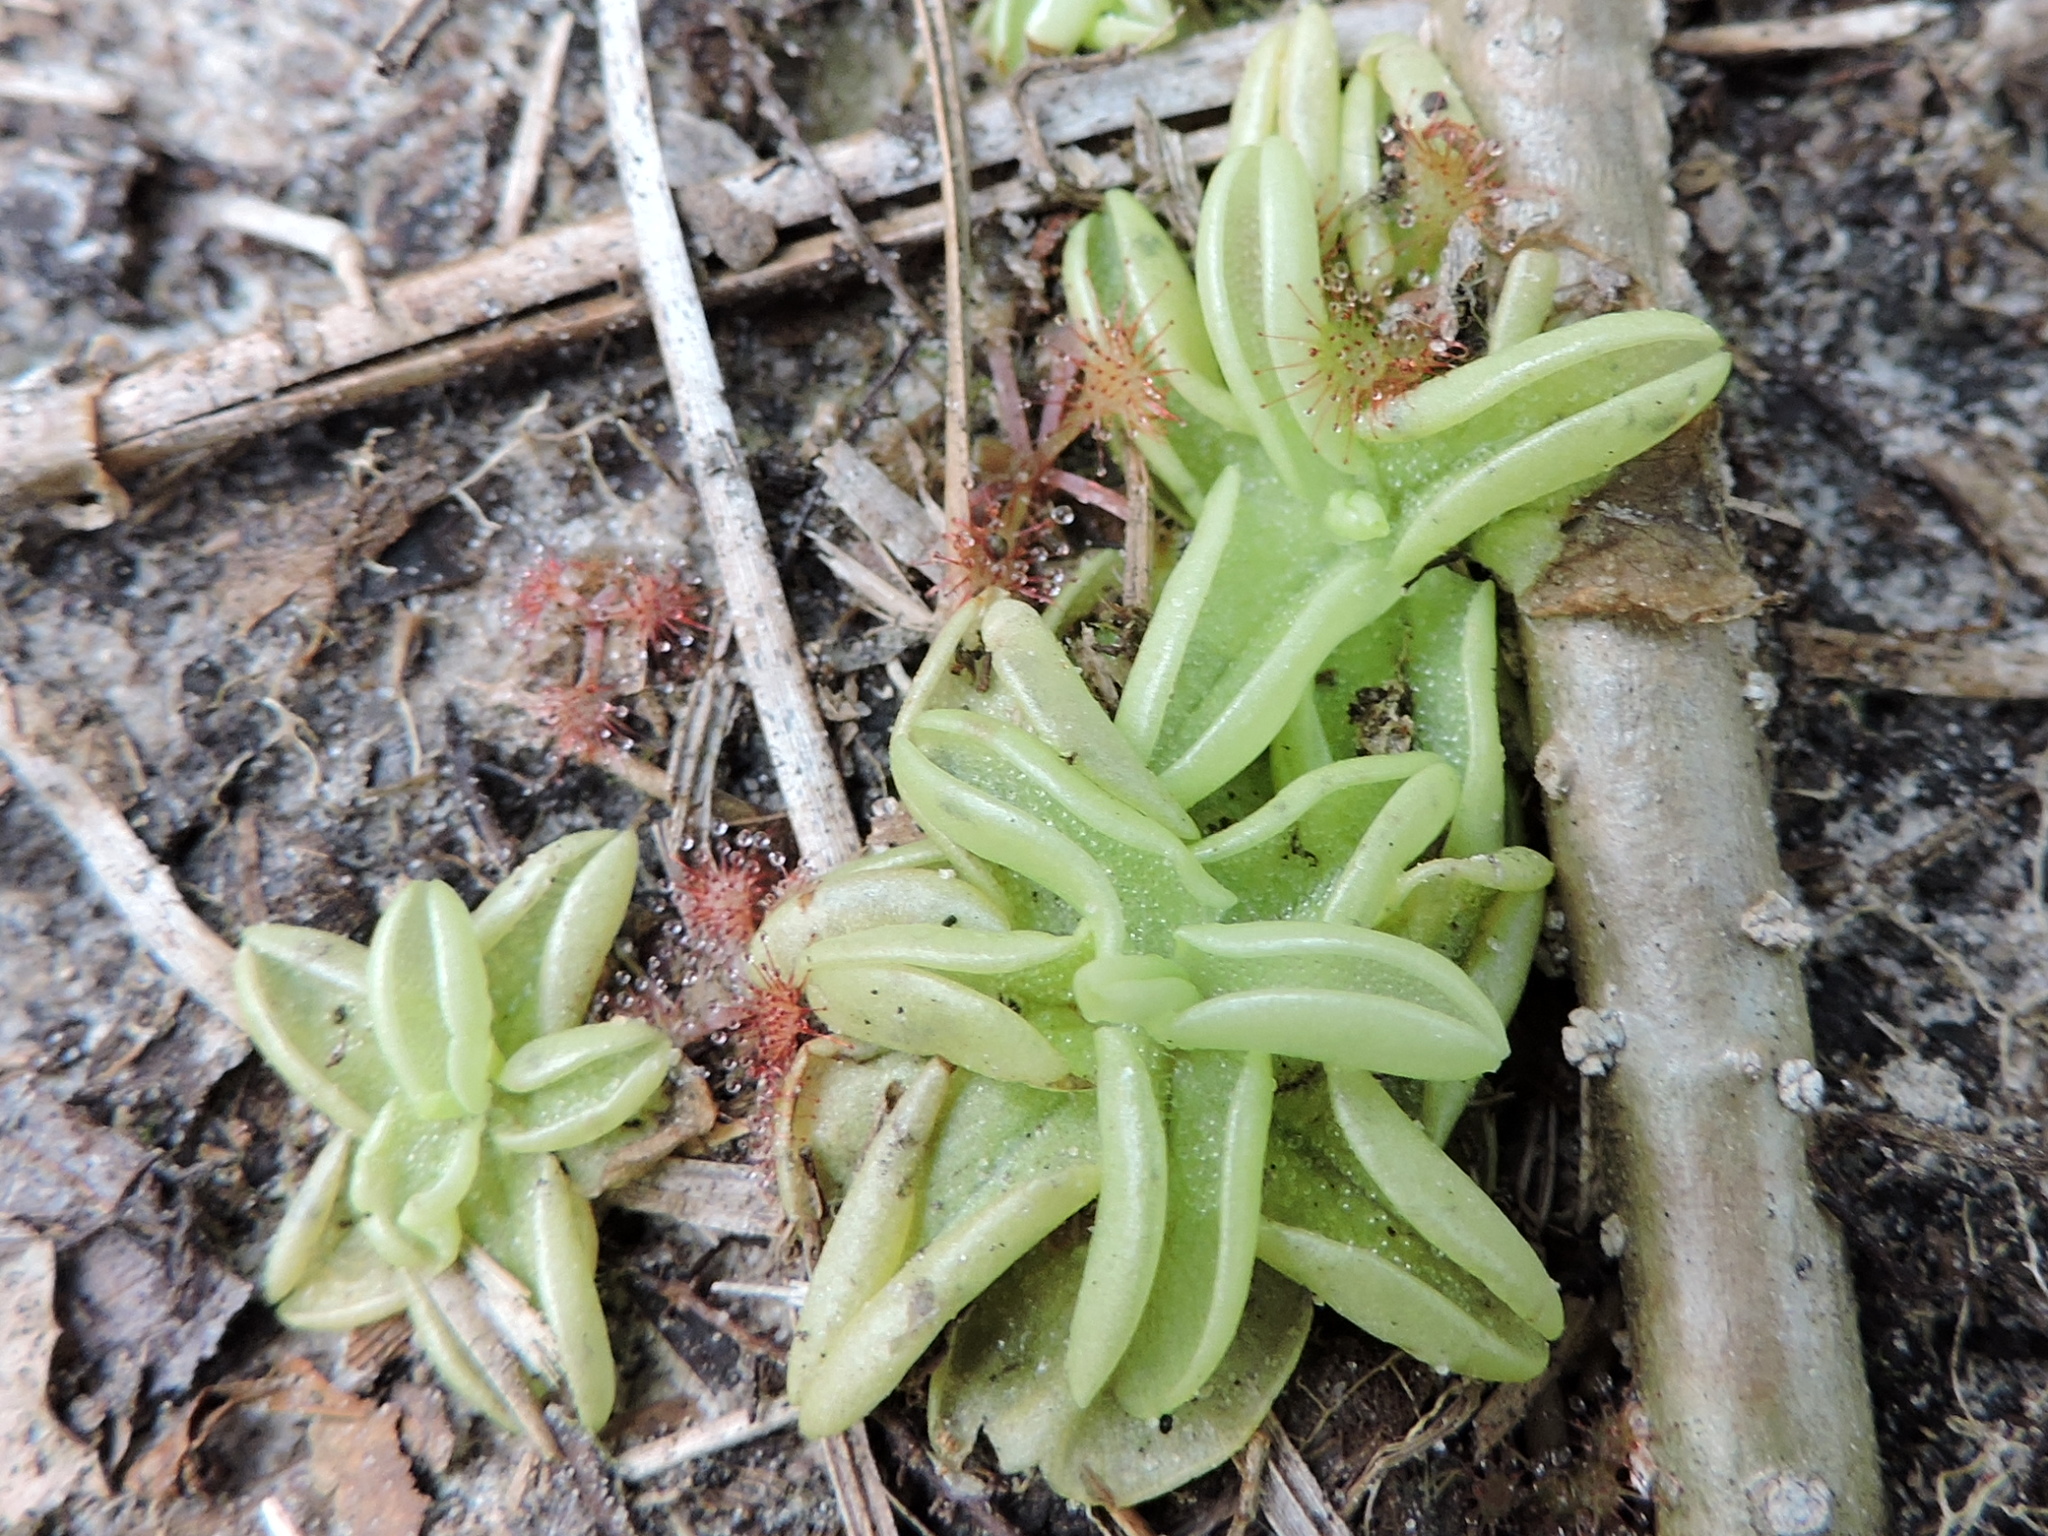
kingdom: Plantae
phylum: Tracheophyta
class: Magnoliopsida
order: Lamiales
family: Lentibulariaceae
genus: Pinguicula
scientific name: Pinguicula pumila
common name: Small butterwort
